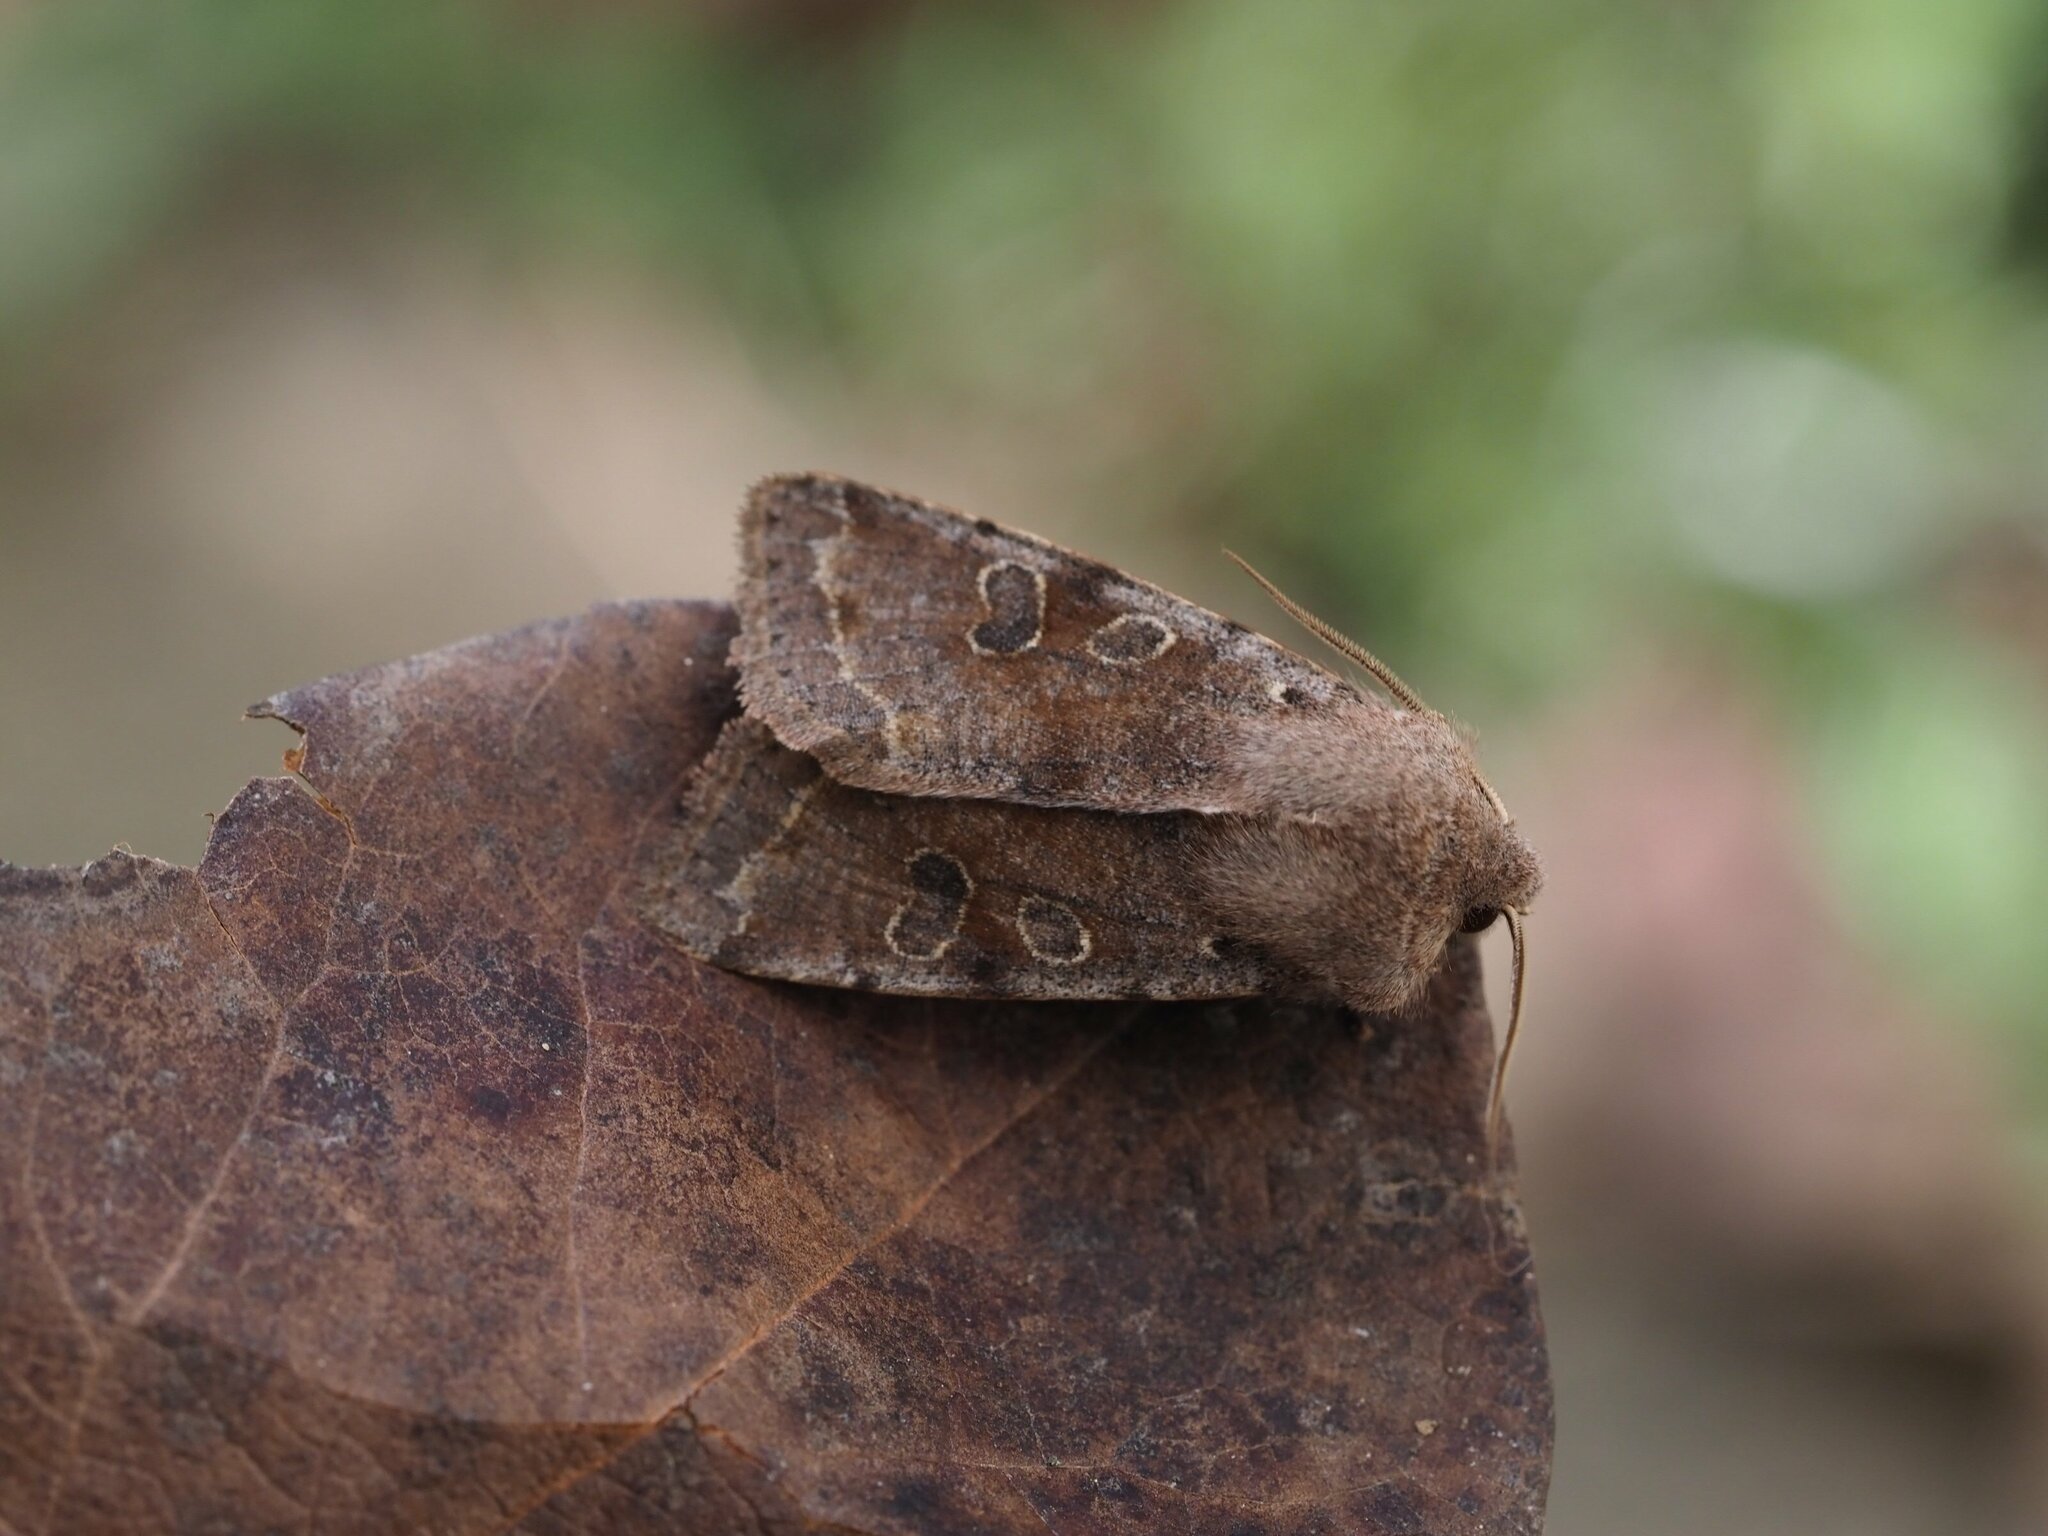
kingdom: Animalia
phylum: Arthropoda
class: Insecta
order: Lepidoptera
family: Noctuidae
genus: Orthosia
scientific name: Orthosia incerta
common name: Clouded drab
